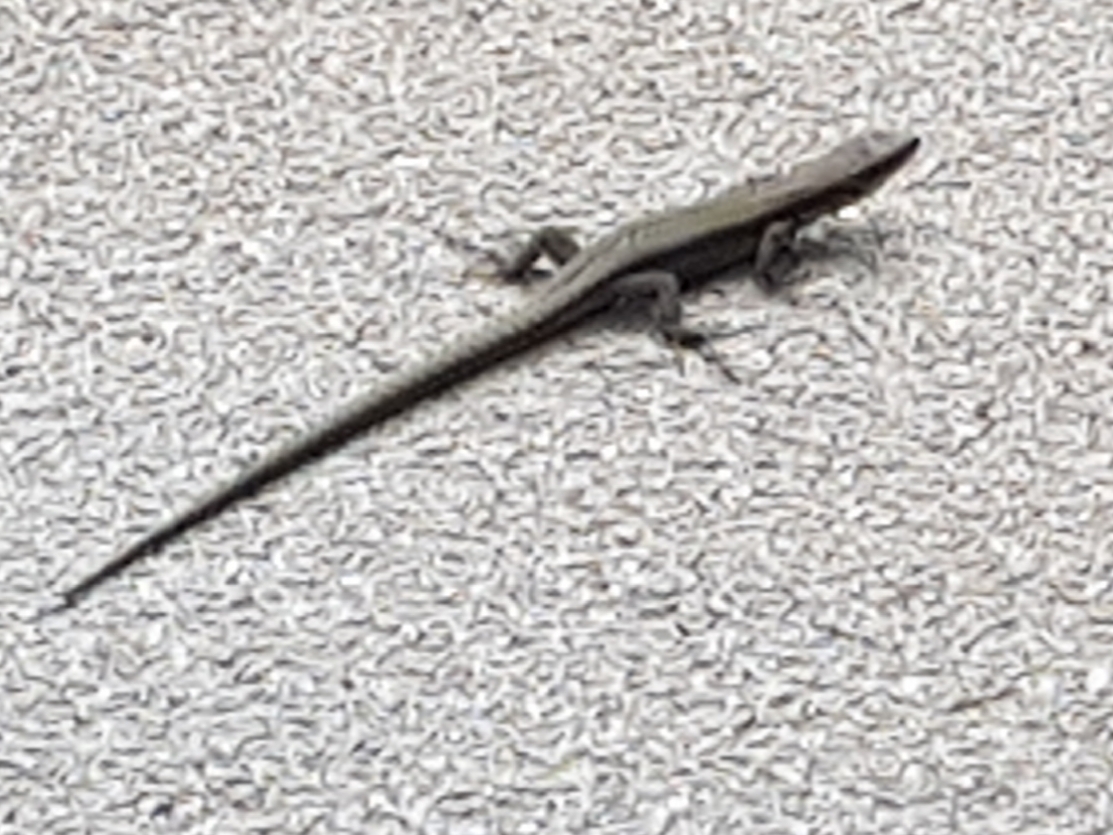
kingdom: Animalia
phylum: Chordata
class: Squamata
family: Lacertidae
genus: Podarcis
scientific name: Podarcis muralis
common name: Common wall lizard
